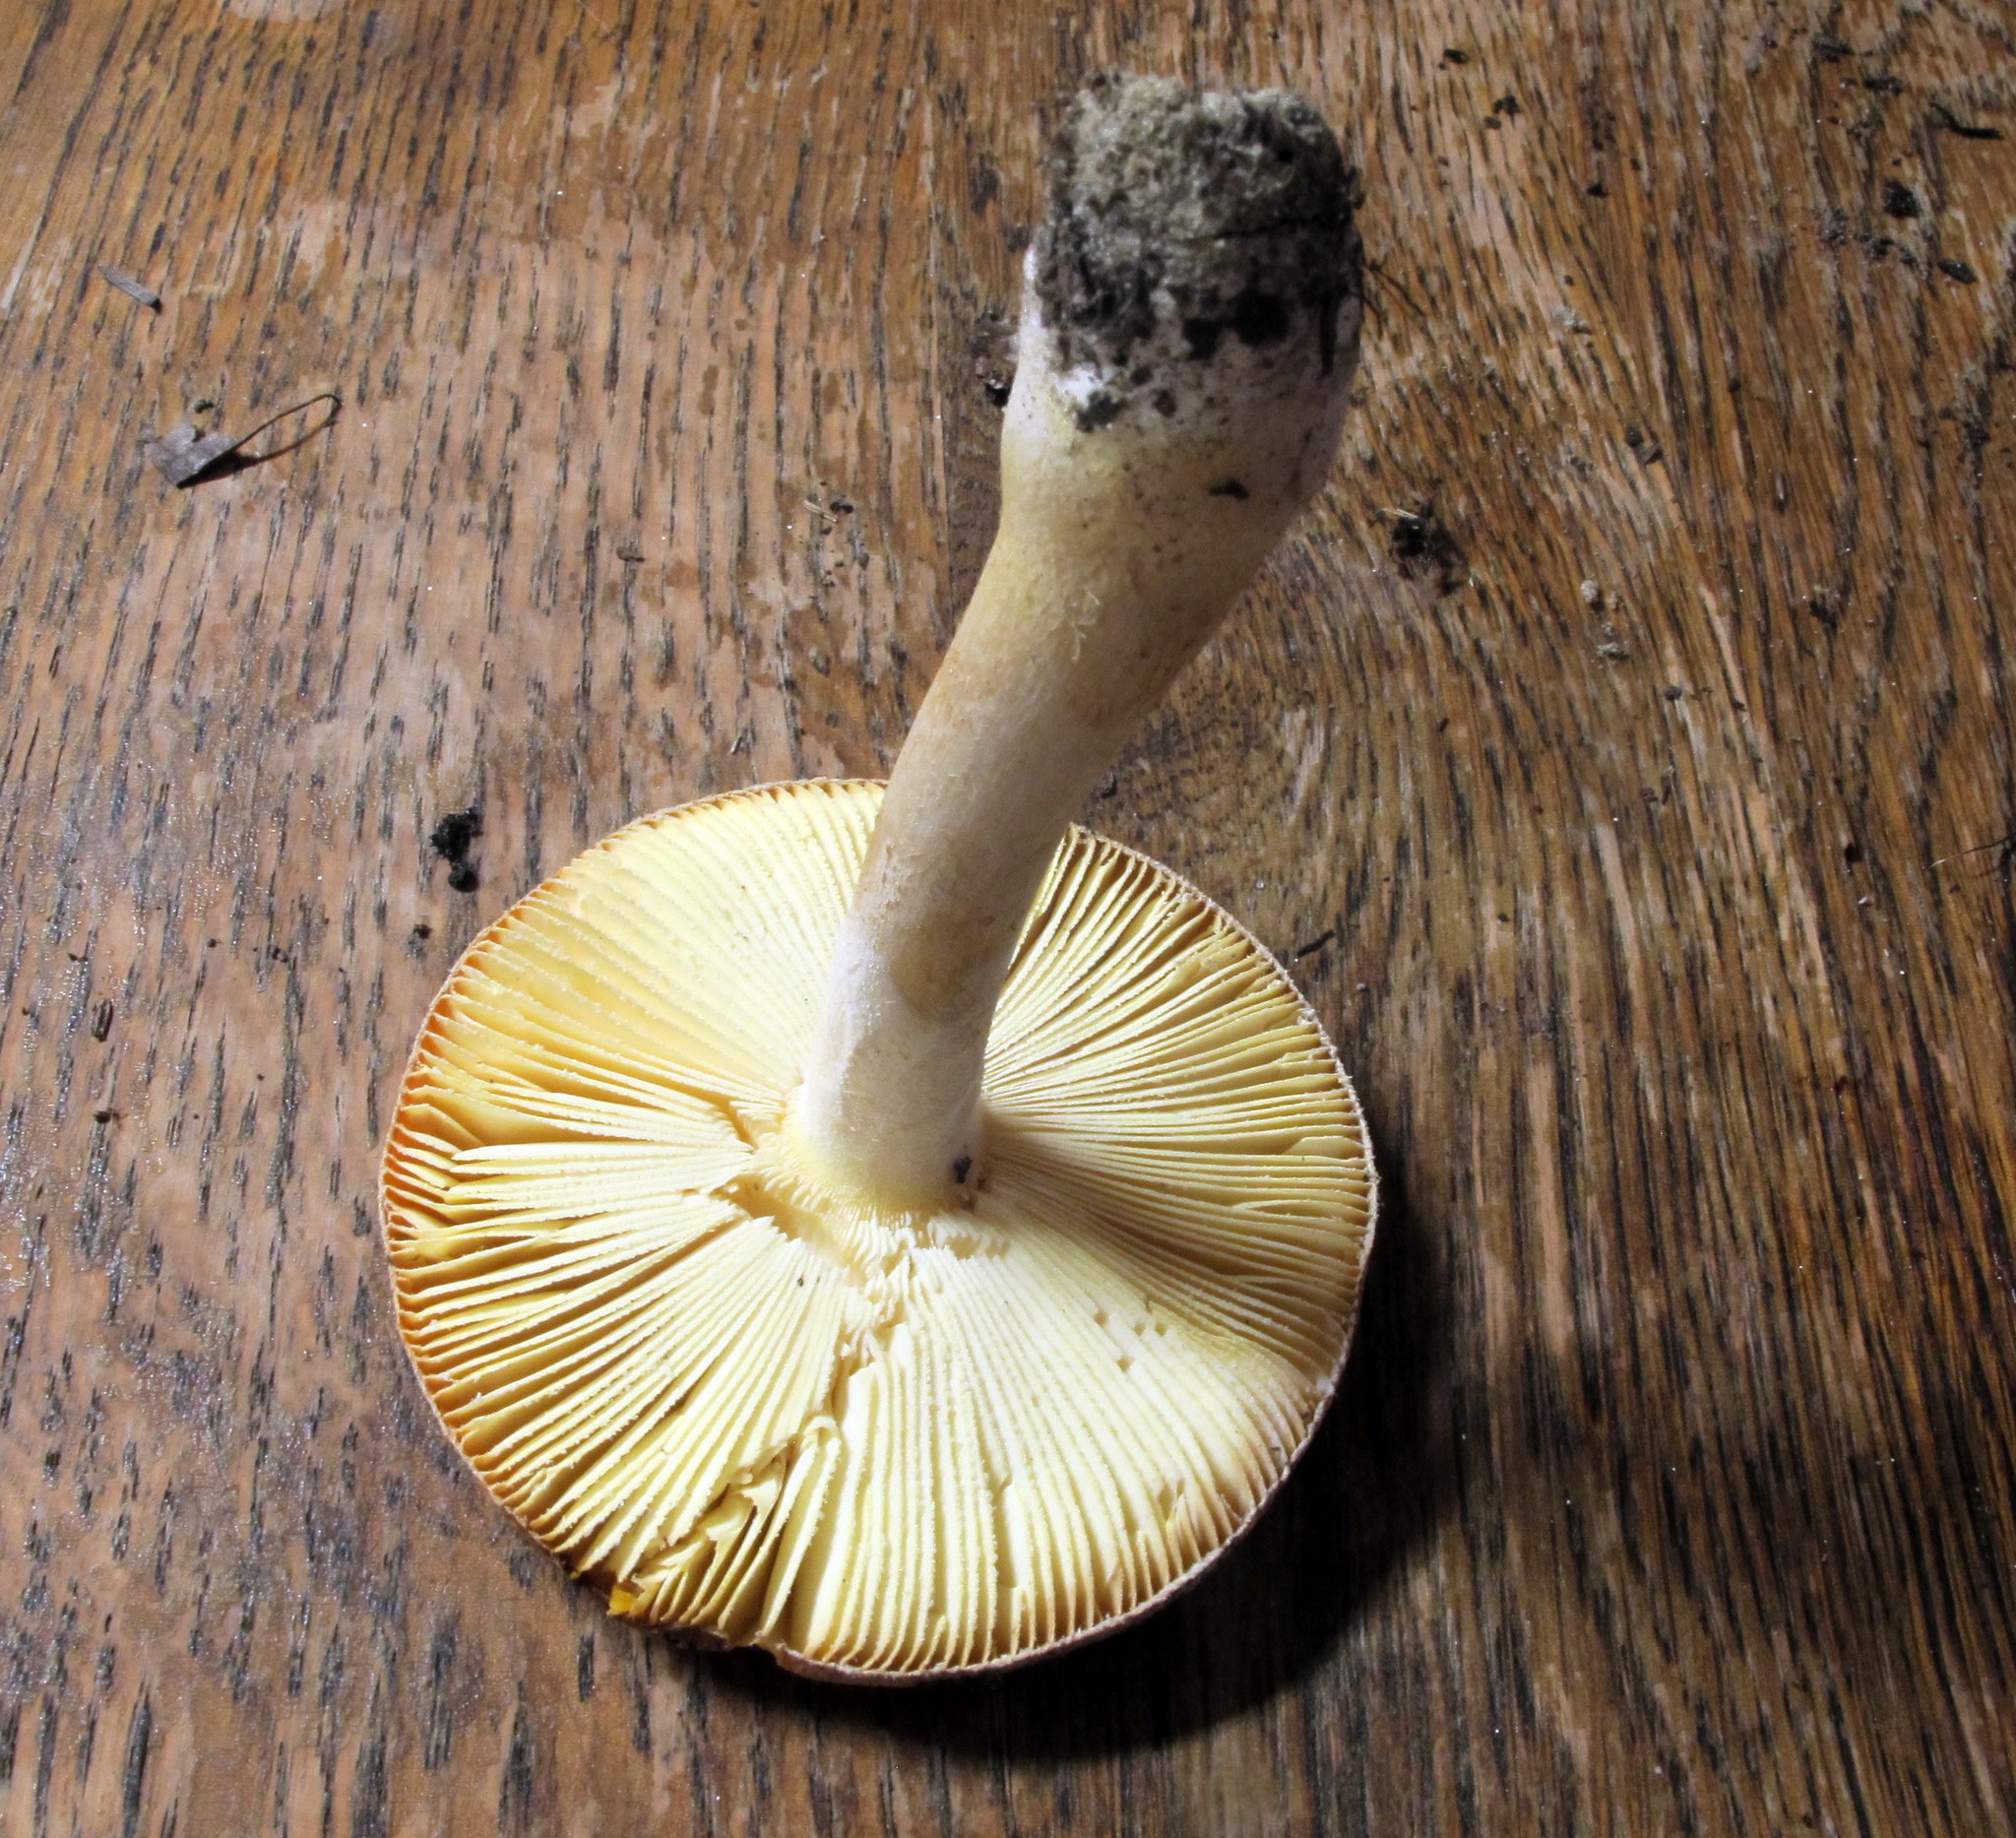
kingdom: Fungi
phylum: Basidiomycota
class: Agaricomycetes
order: Agaricales
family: Amanitaceae
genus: Amanita
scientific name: Amanita wellsii
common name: Salmon amanita
